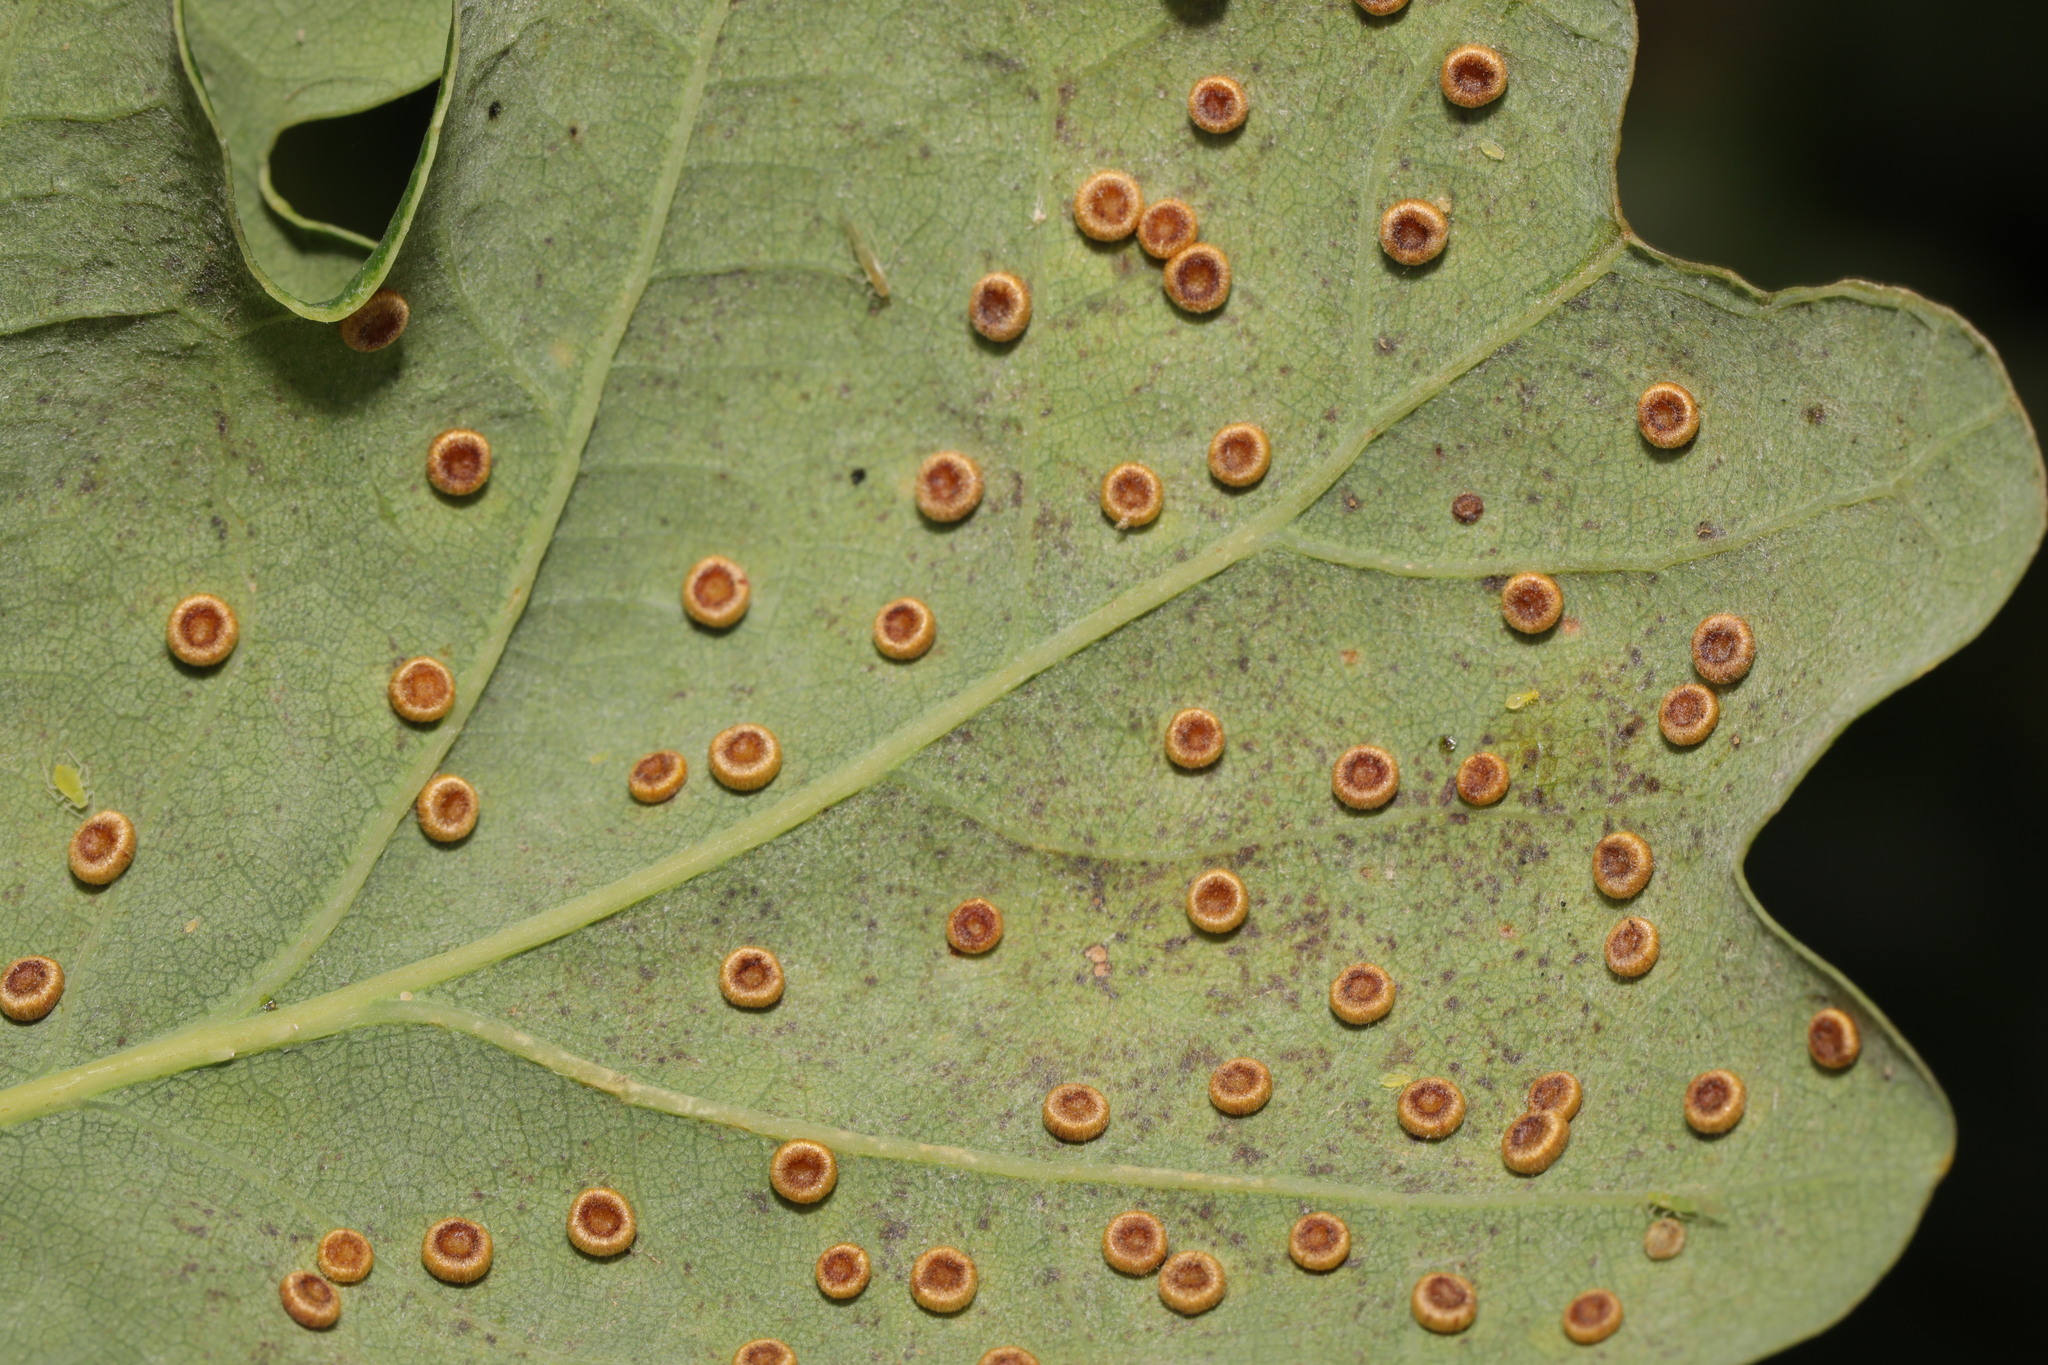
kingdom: Animalia
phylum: Arthropoda
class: Insecta
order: Hymenoptera
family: Cynipidae
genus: Neuroterus
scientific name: Neuroterus numismalis
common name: Silk-button spangle gall
